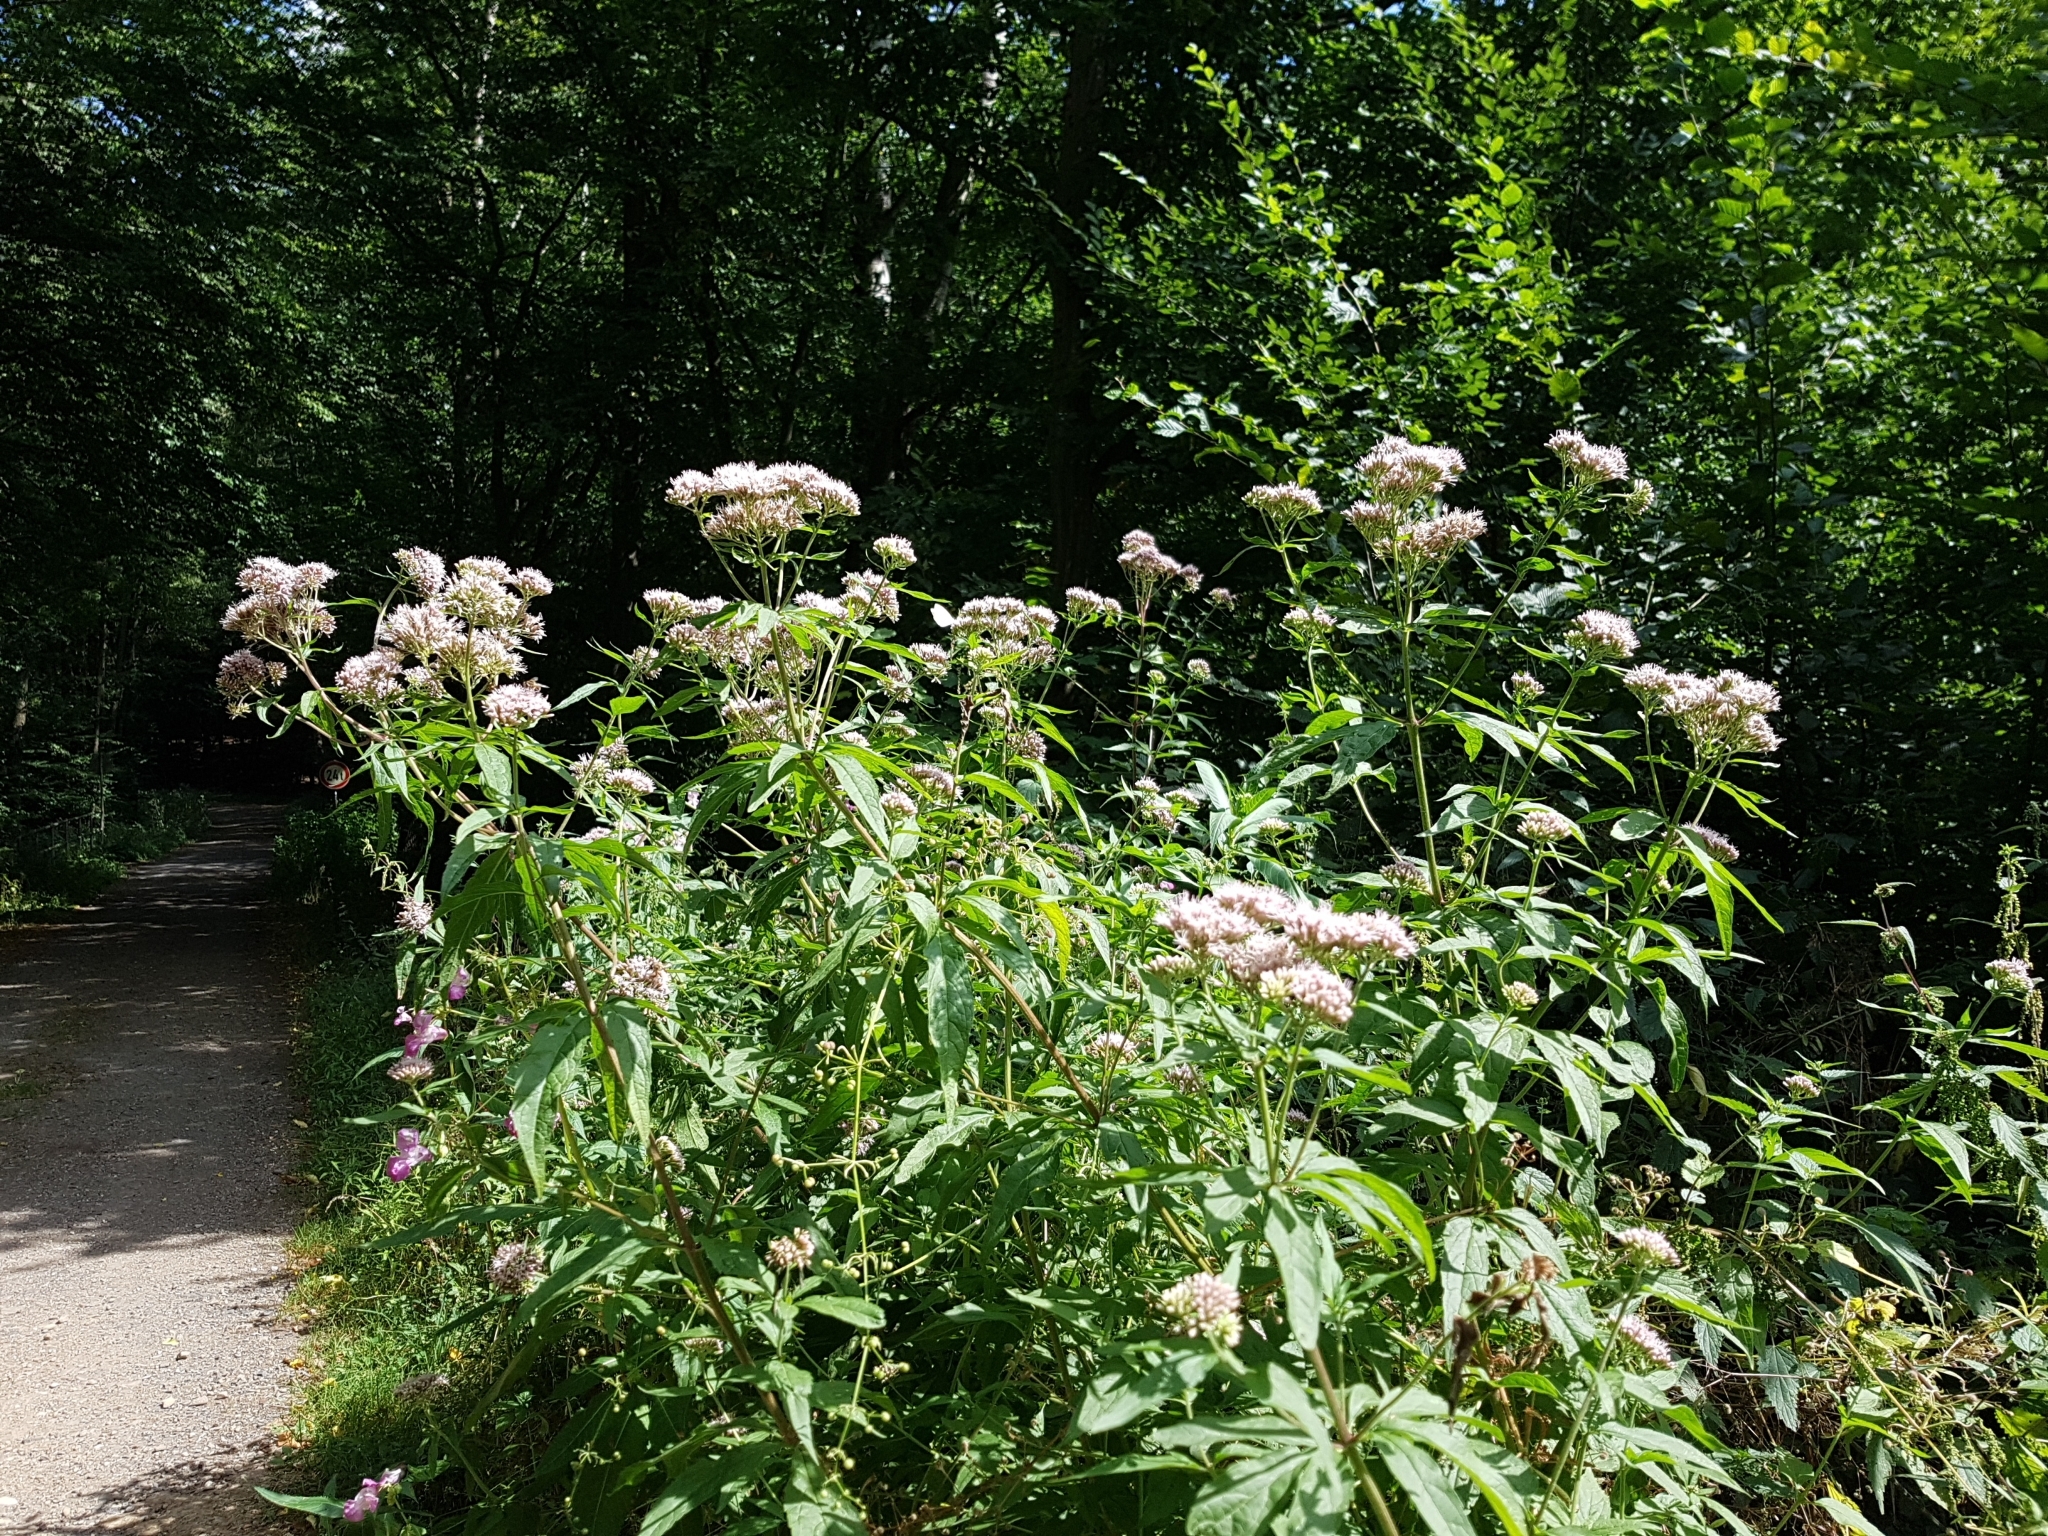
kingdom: Plantae
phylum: Tracheophyta
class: Magnoliopsida
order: Asterales
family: Asteraceae
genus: Eupatorium
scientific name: Eupatorium cannabinum
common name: Hemp-agrimony
